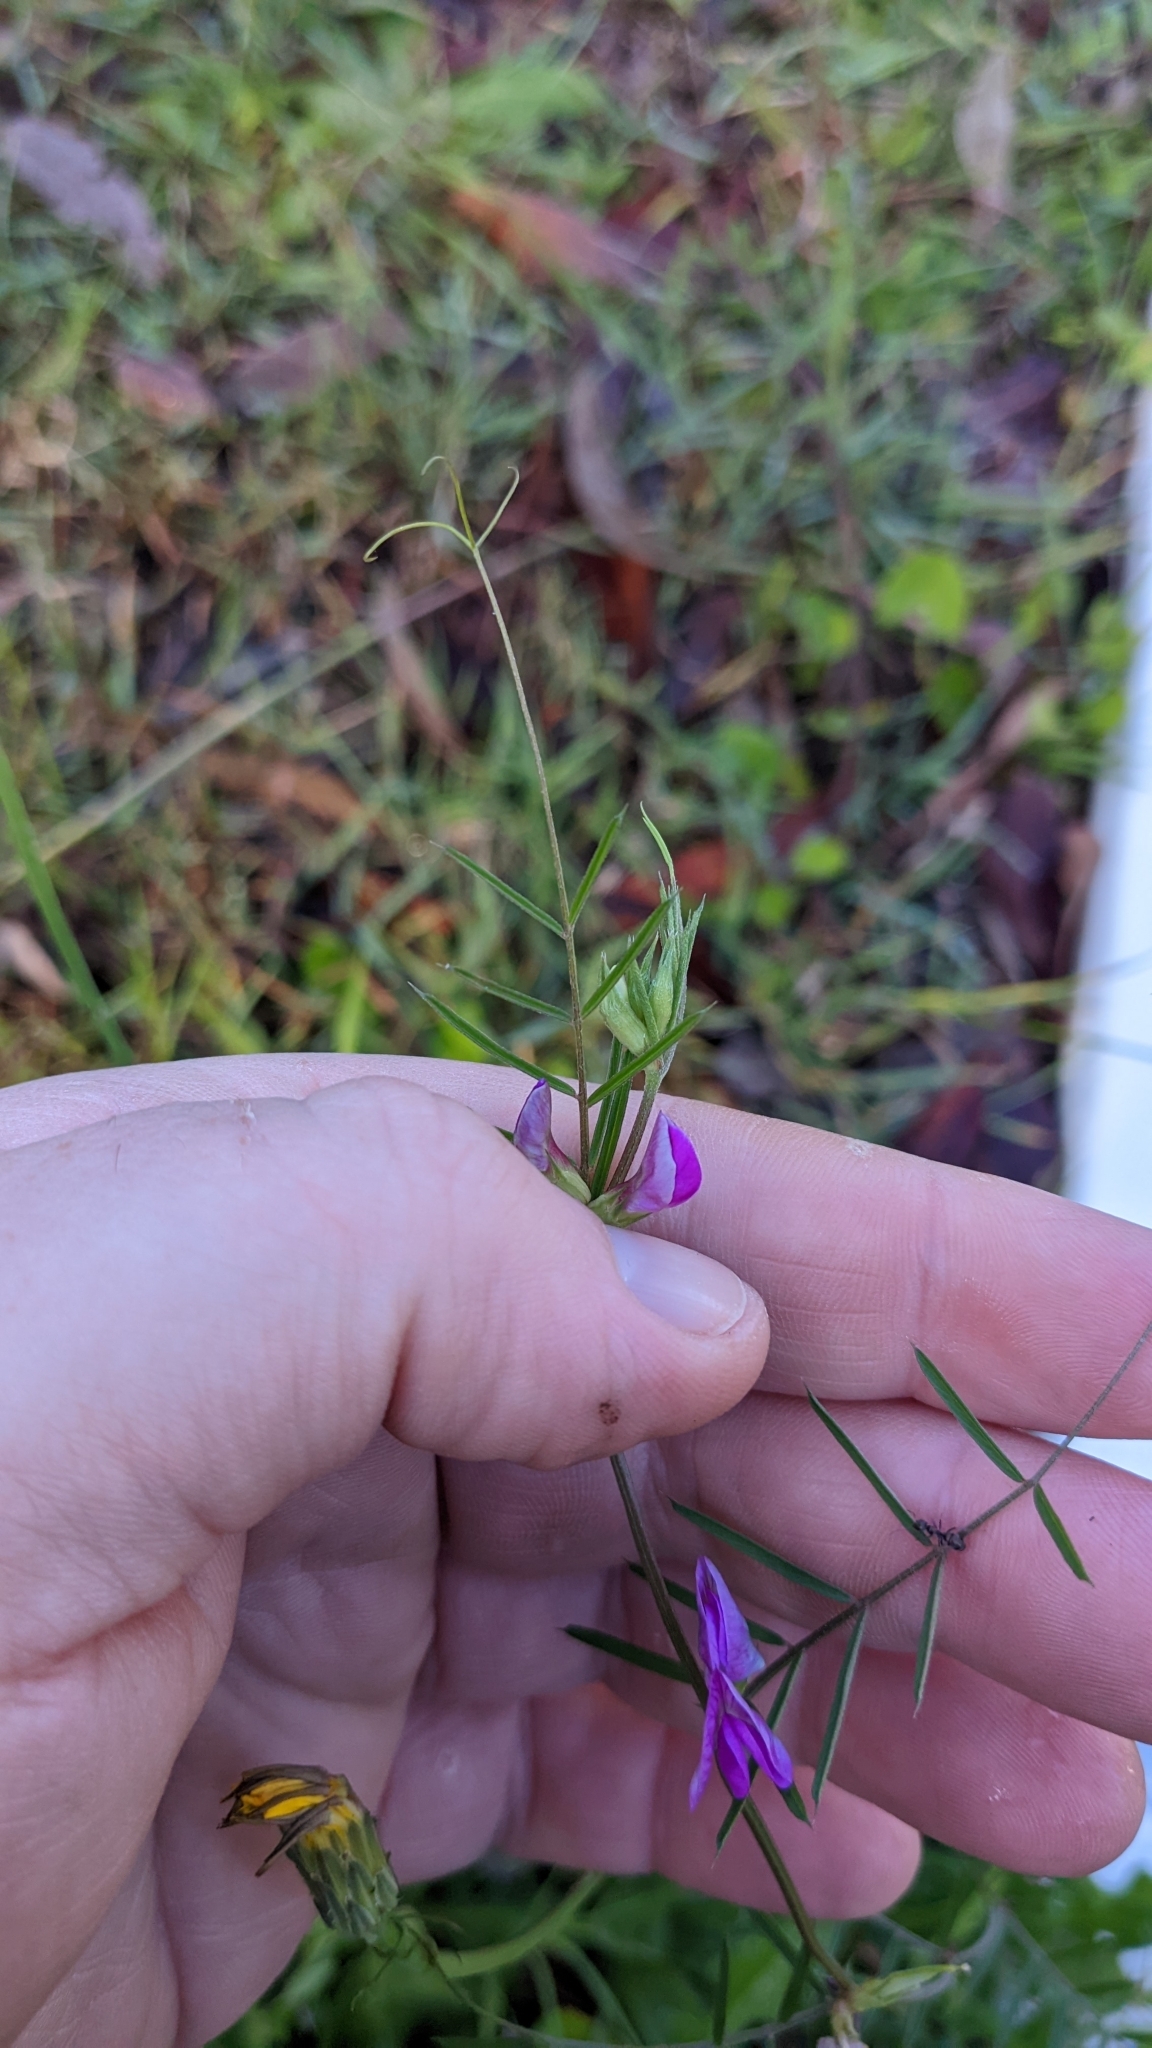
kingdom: Plantae
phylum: Tracheophyta
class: Magnoliopsida
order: Fabales
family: Fabaceae
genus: Vicia
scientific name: Vicia sativa
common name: Garden vetch
